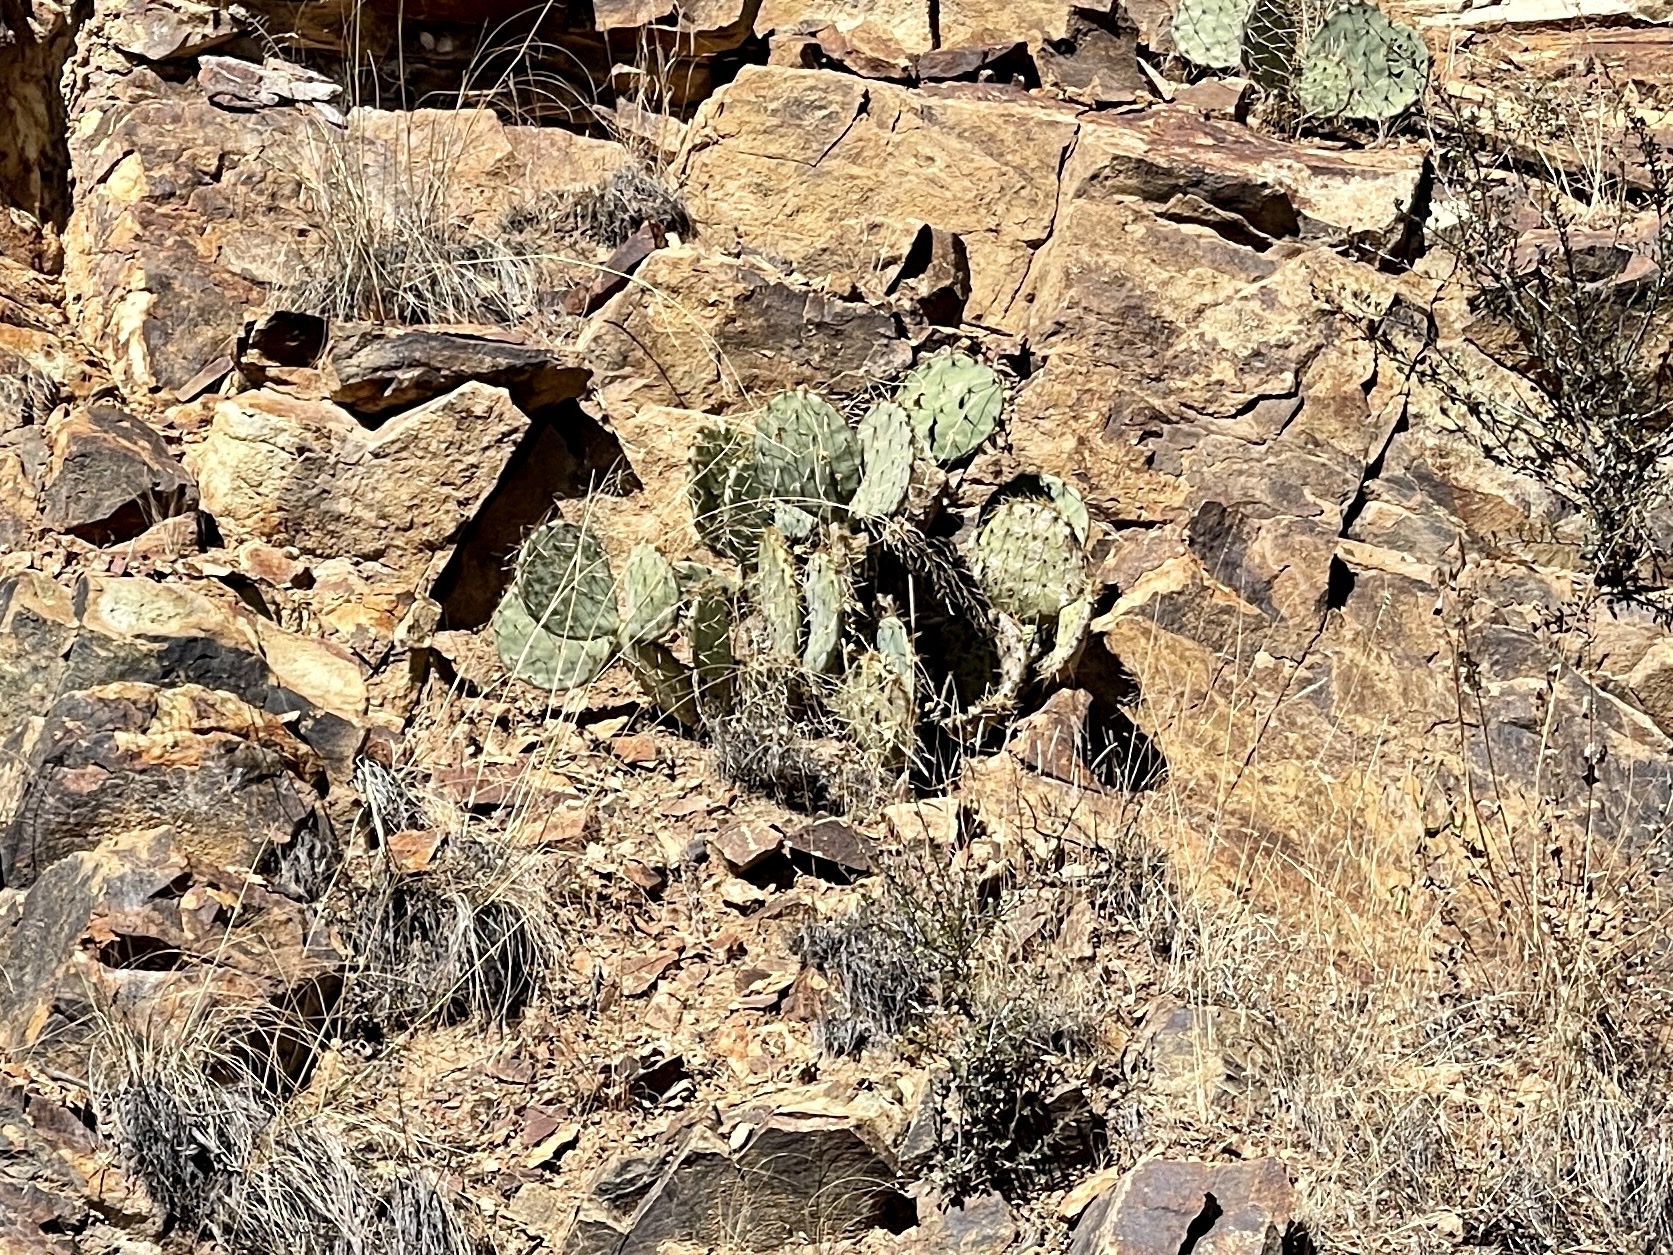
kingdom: Plantae
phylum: Tracheophyta
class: Magnoliopsida
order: Caryophyllales
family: Cactaceae
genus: Opuntia
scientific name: Opuntia engelmannii
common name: Cactus-apple
